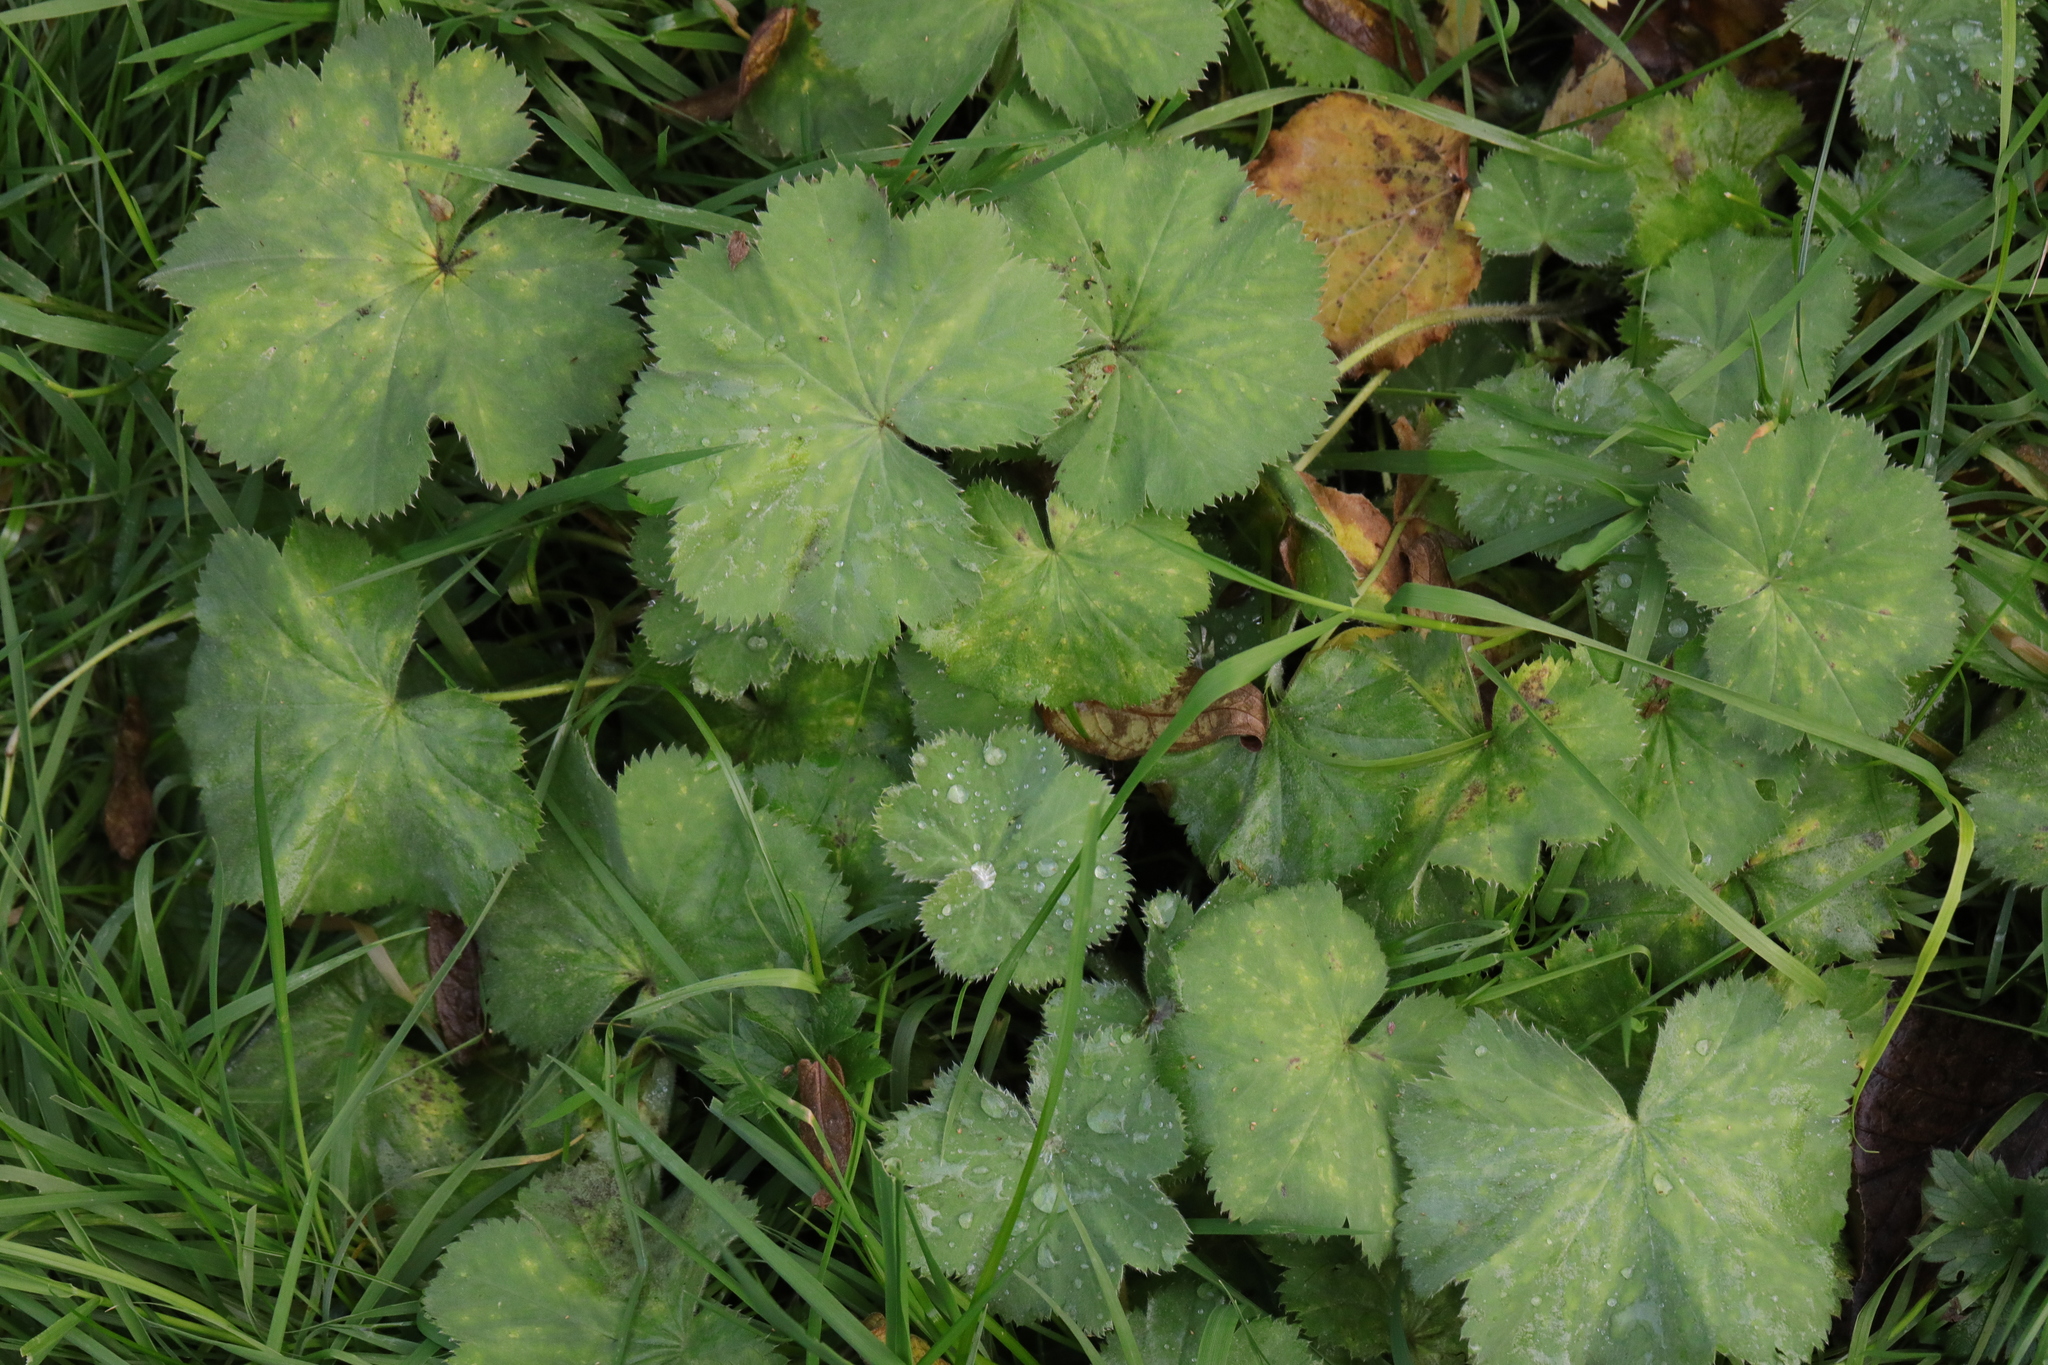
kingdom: Plantae
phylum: Tracheophyta
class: Magnoliopsida
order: Rosales
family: Rosaceae
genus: Alchemilla
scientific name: Alchemilla mollis
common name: Lady's-mantle
